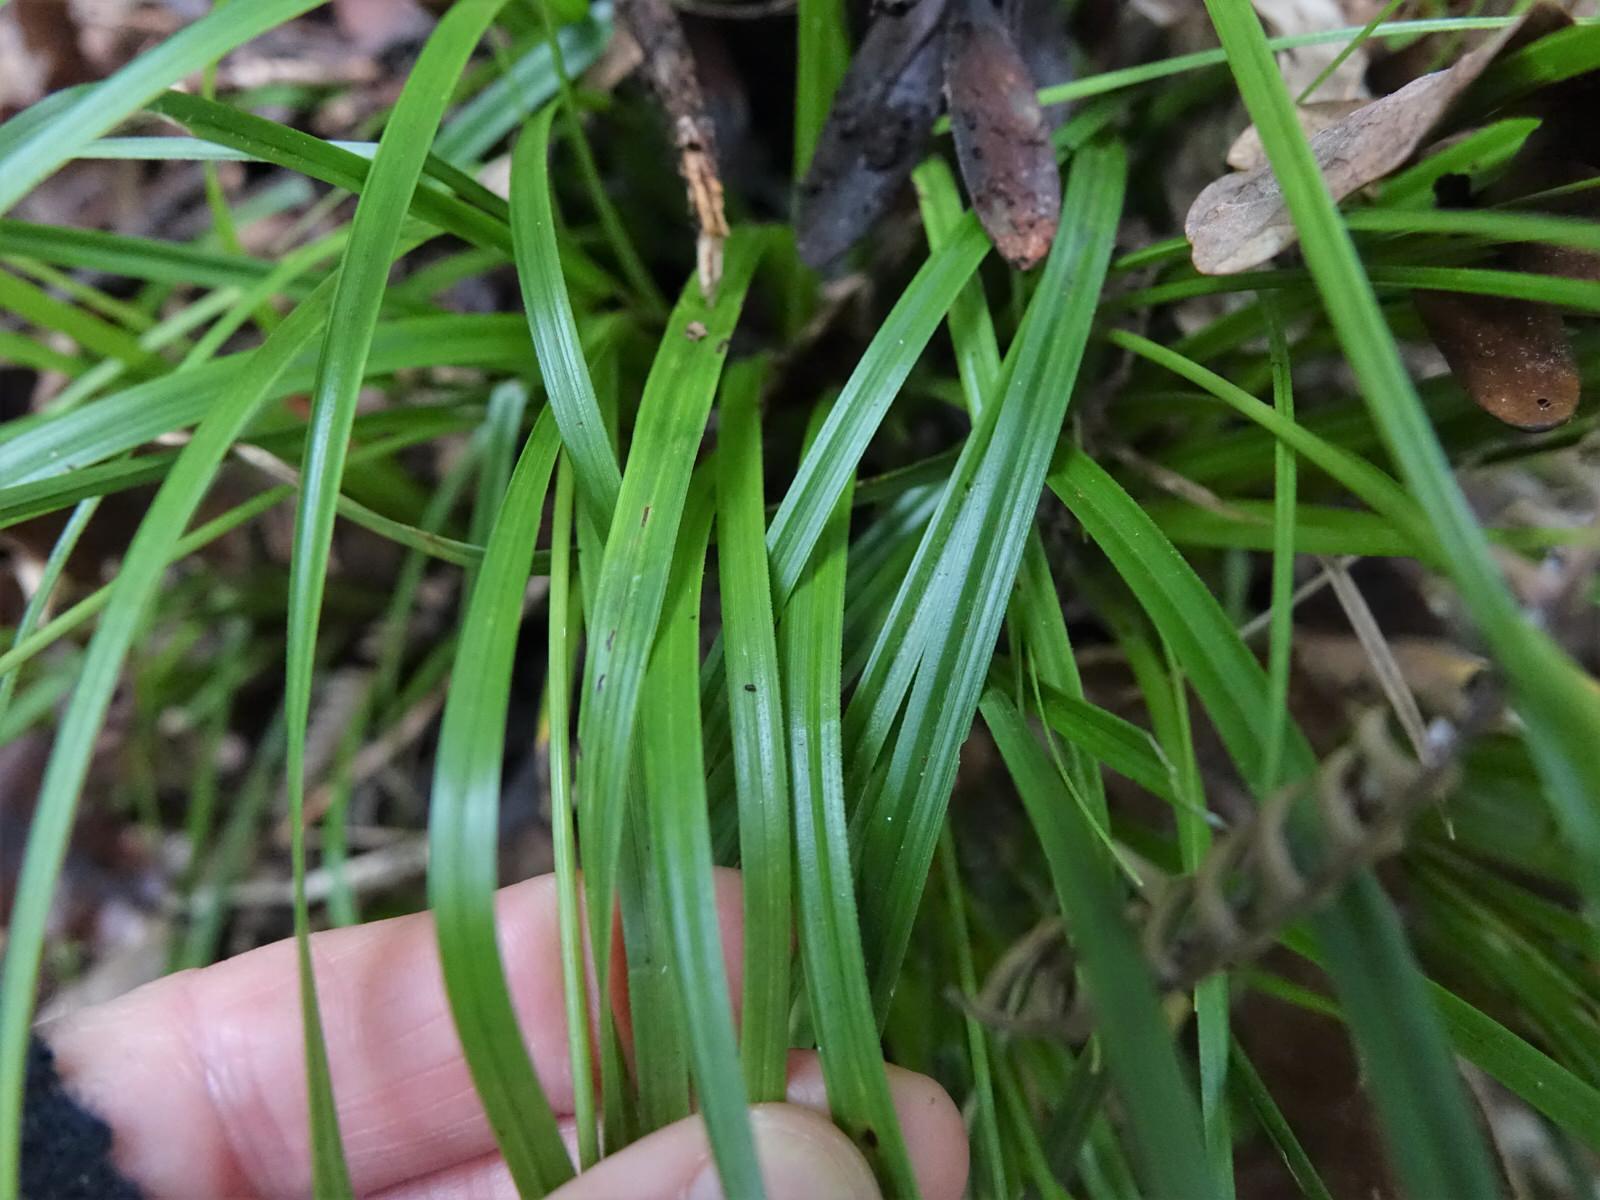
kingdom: Plantae
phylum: Tracheophyta
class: Liliopsida
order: Poales
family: Cyperaceae
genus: Carex
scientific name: Carex uncinata
